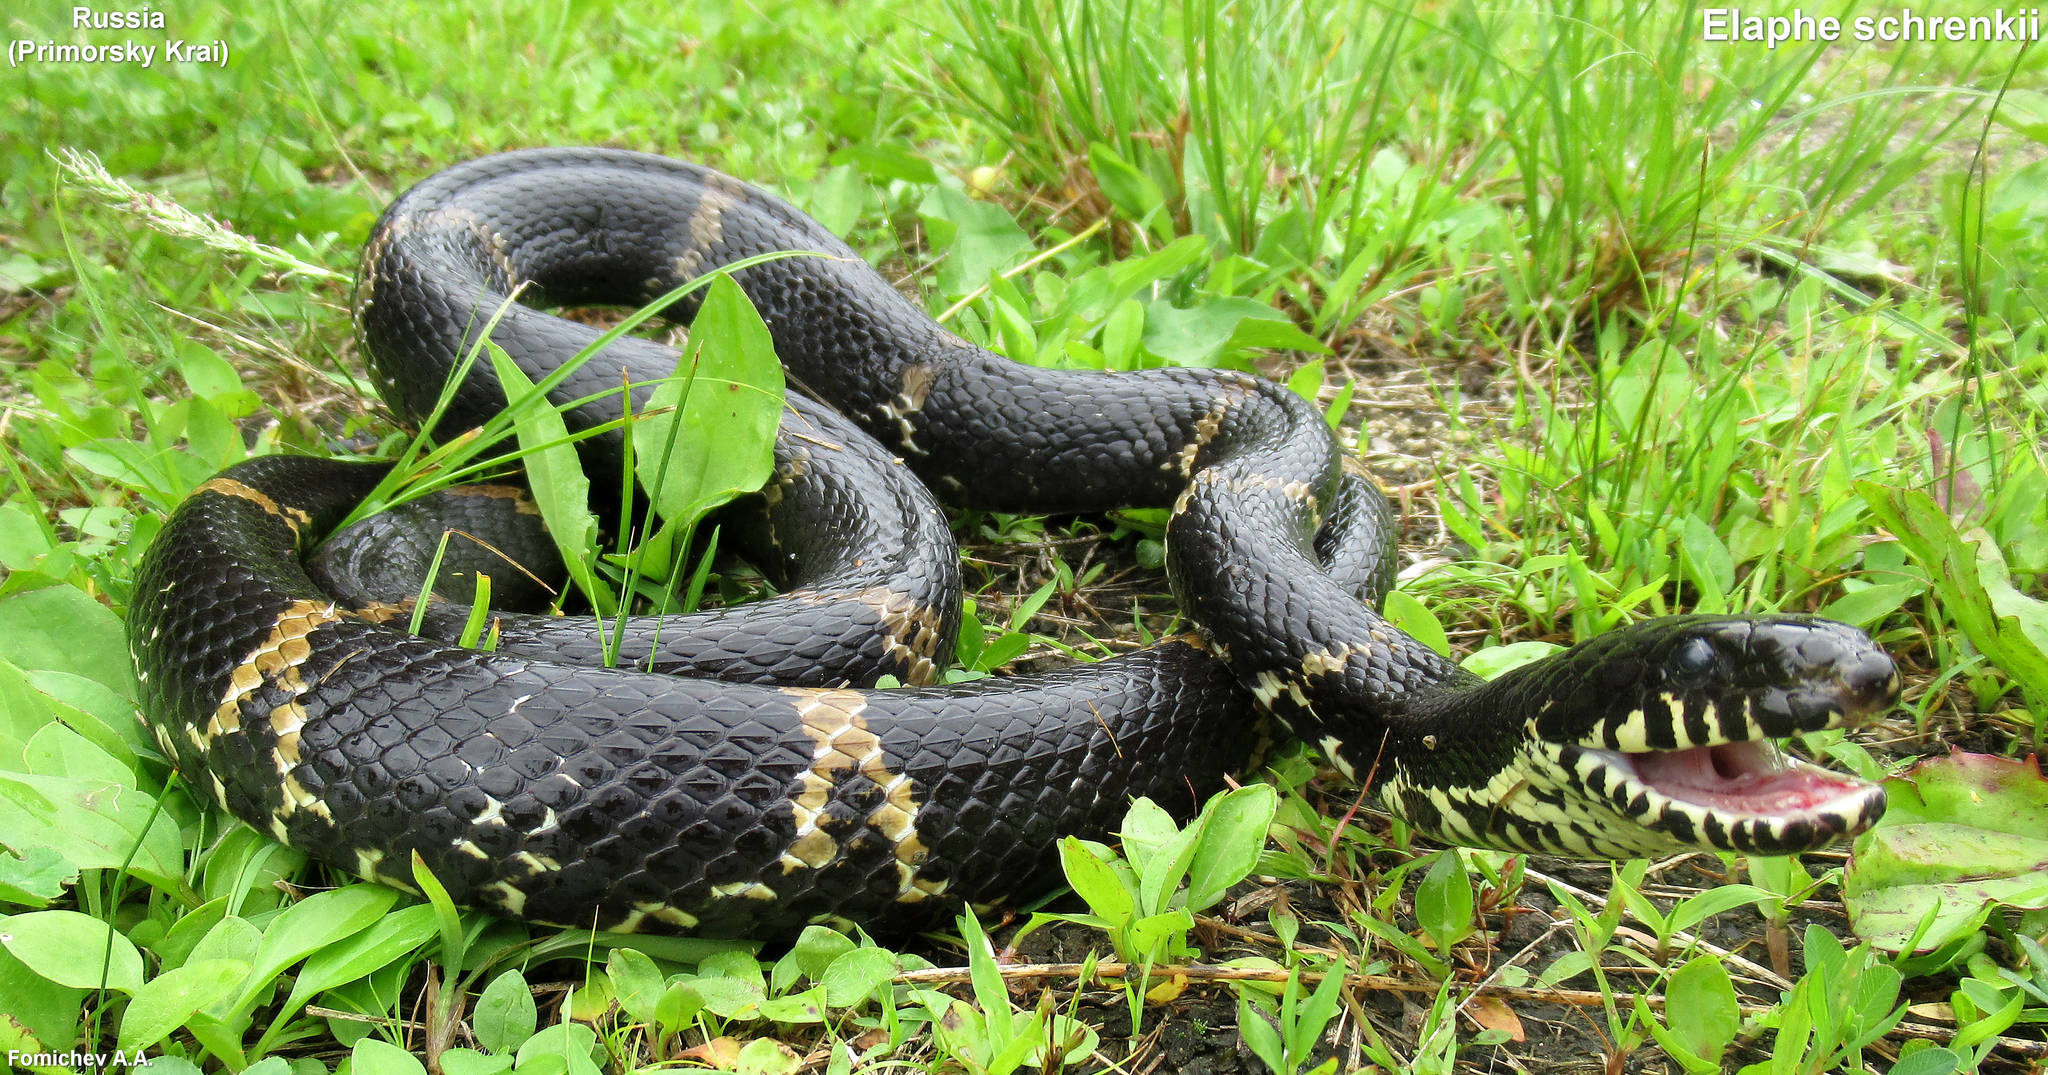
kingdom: Animalia
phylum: Chordata
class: Squamata
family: Colubridae
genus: Elaphe
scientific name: Elaphe schrenckii
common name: Amur rat snake
